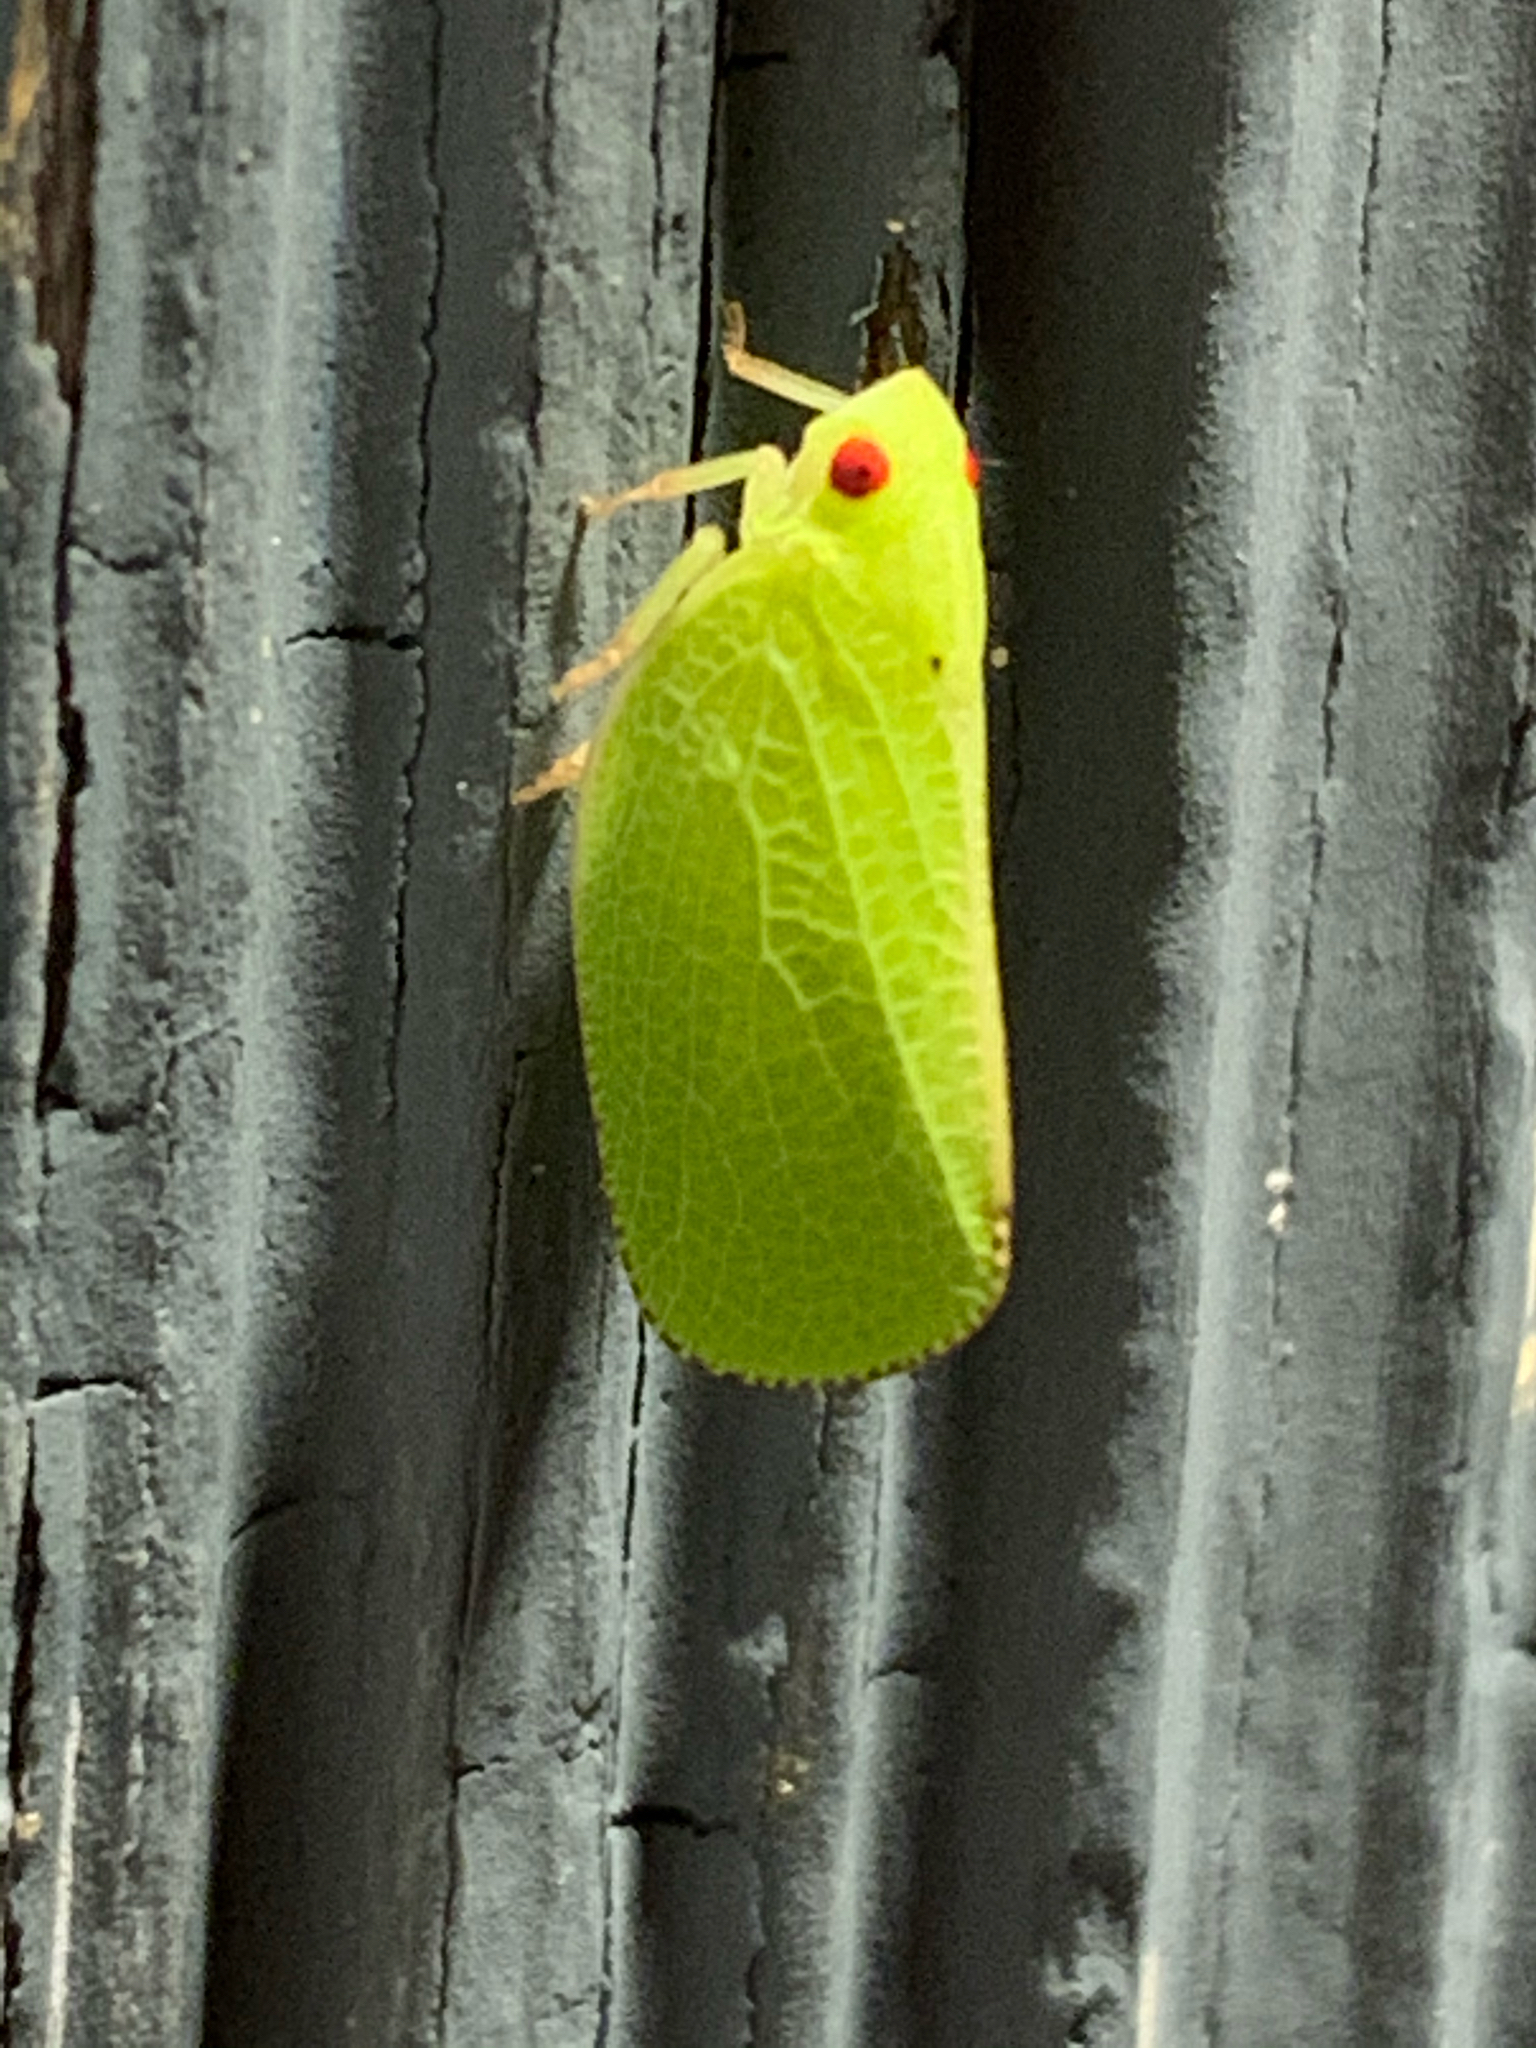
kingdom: Animalia
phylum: Arthropoda
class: Insecta
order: Hemiptera
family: Acanaloniidae
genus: Acanalonia
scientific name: Acanalonia conica
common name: Green cone-headed planthopper
